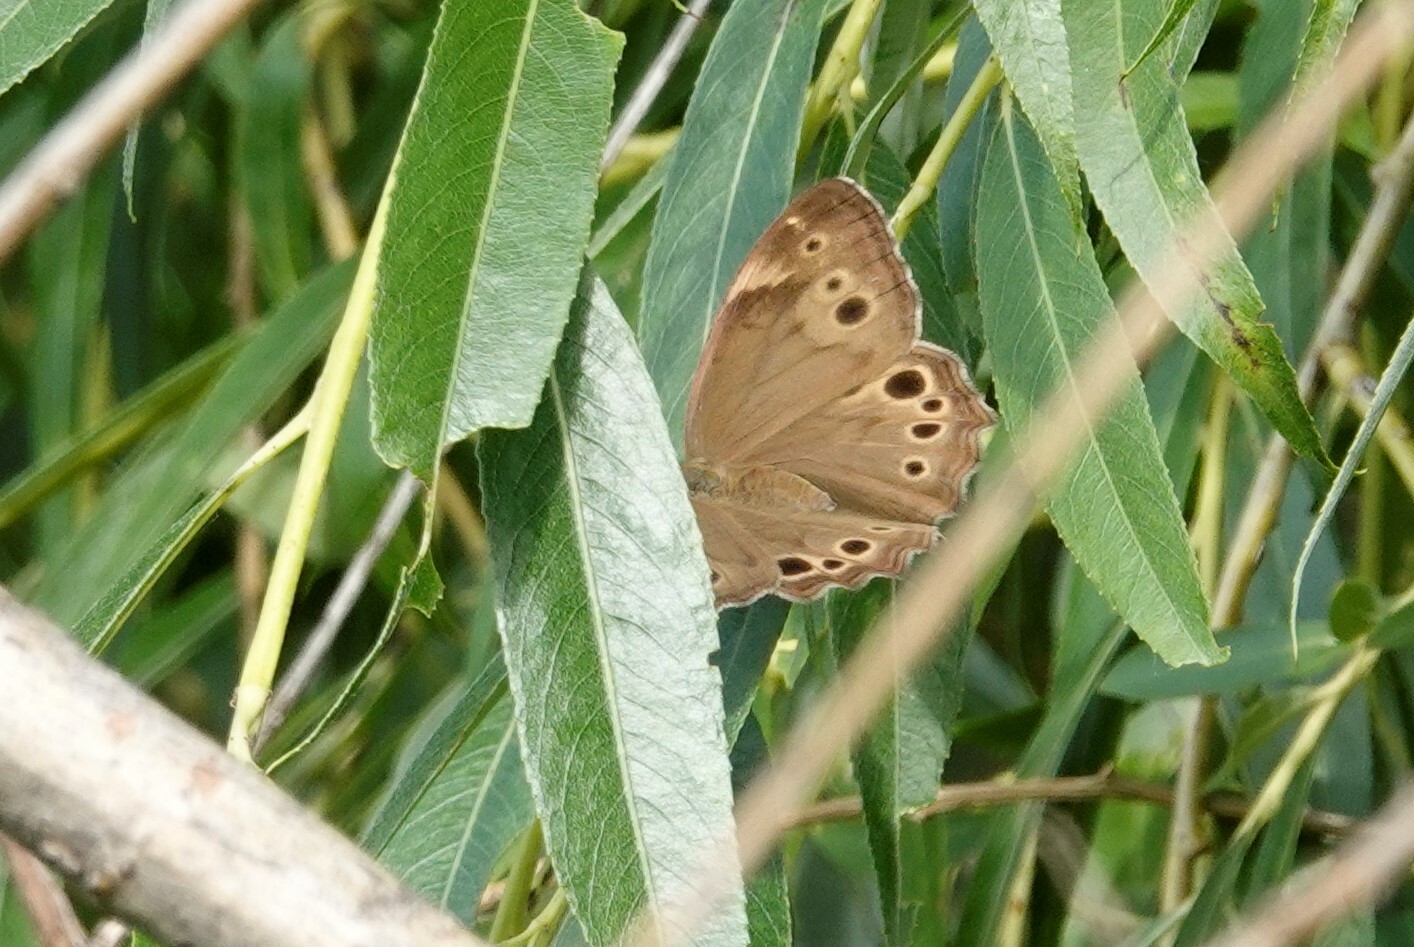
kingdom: Animalia
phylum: Arthropoda
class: Insecta
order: Lepidoptera
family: Nymphalidae
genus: Lethe
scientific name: Lethe anthedon
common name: Northern pearly-eye
